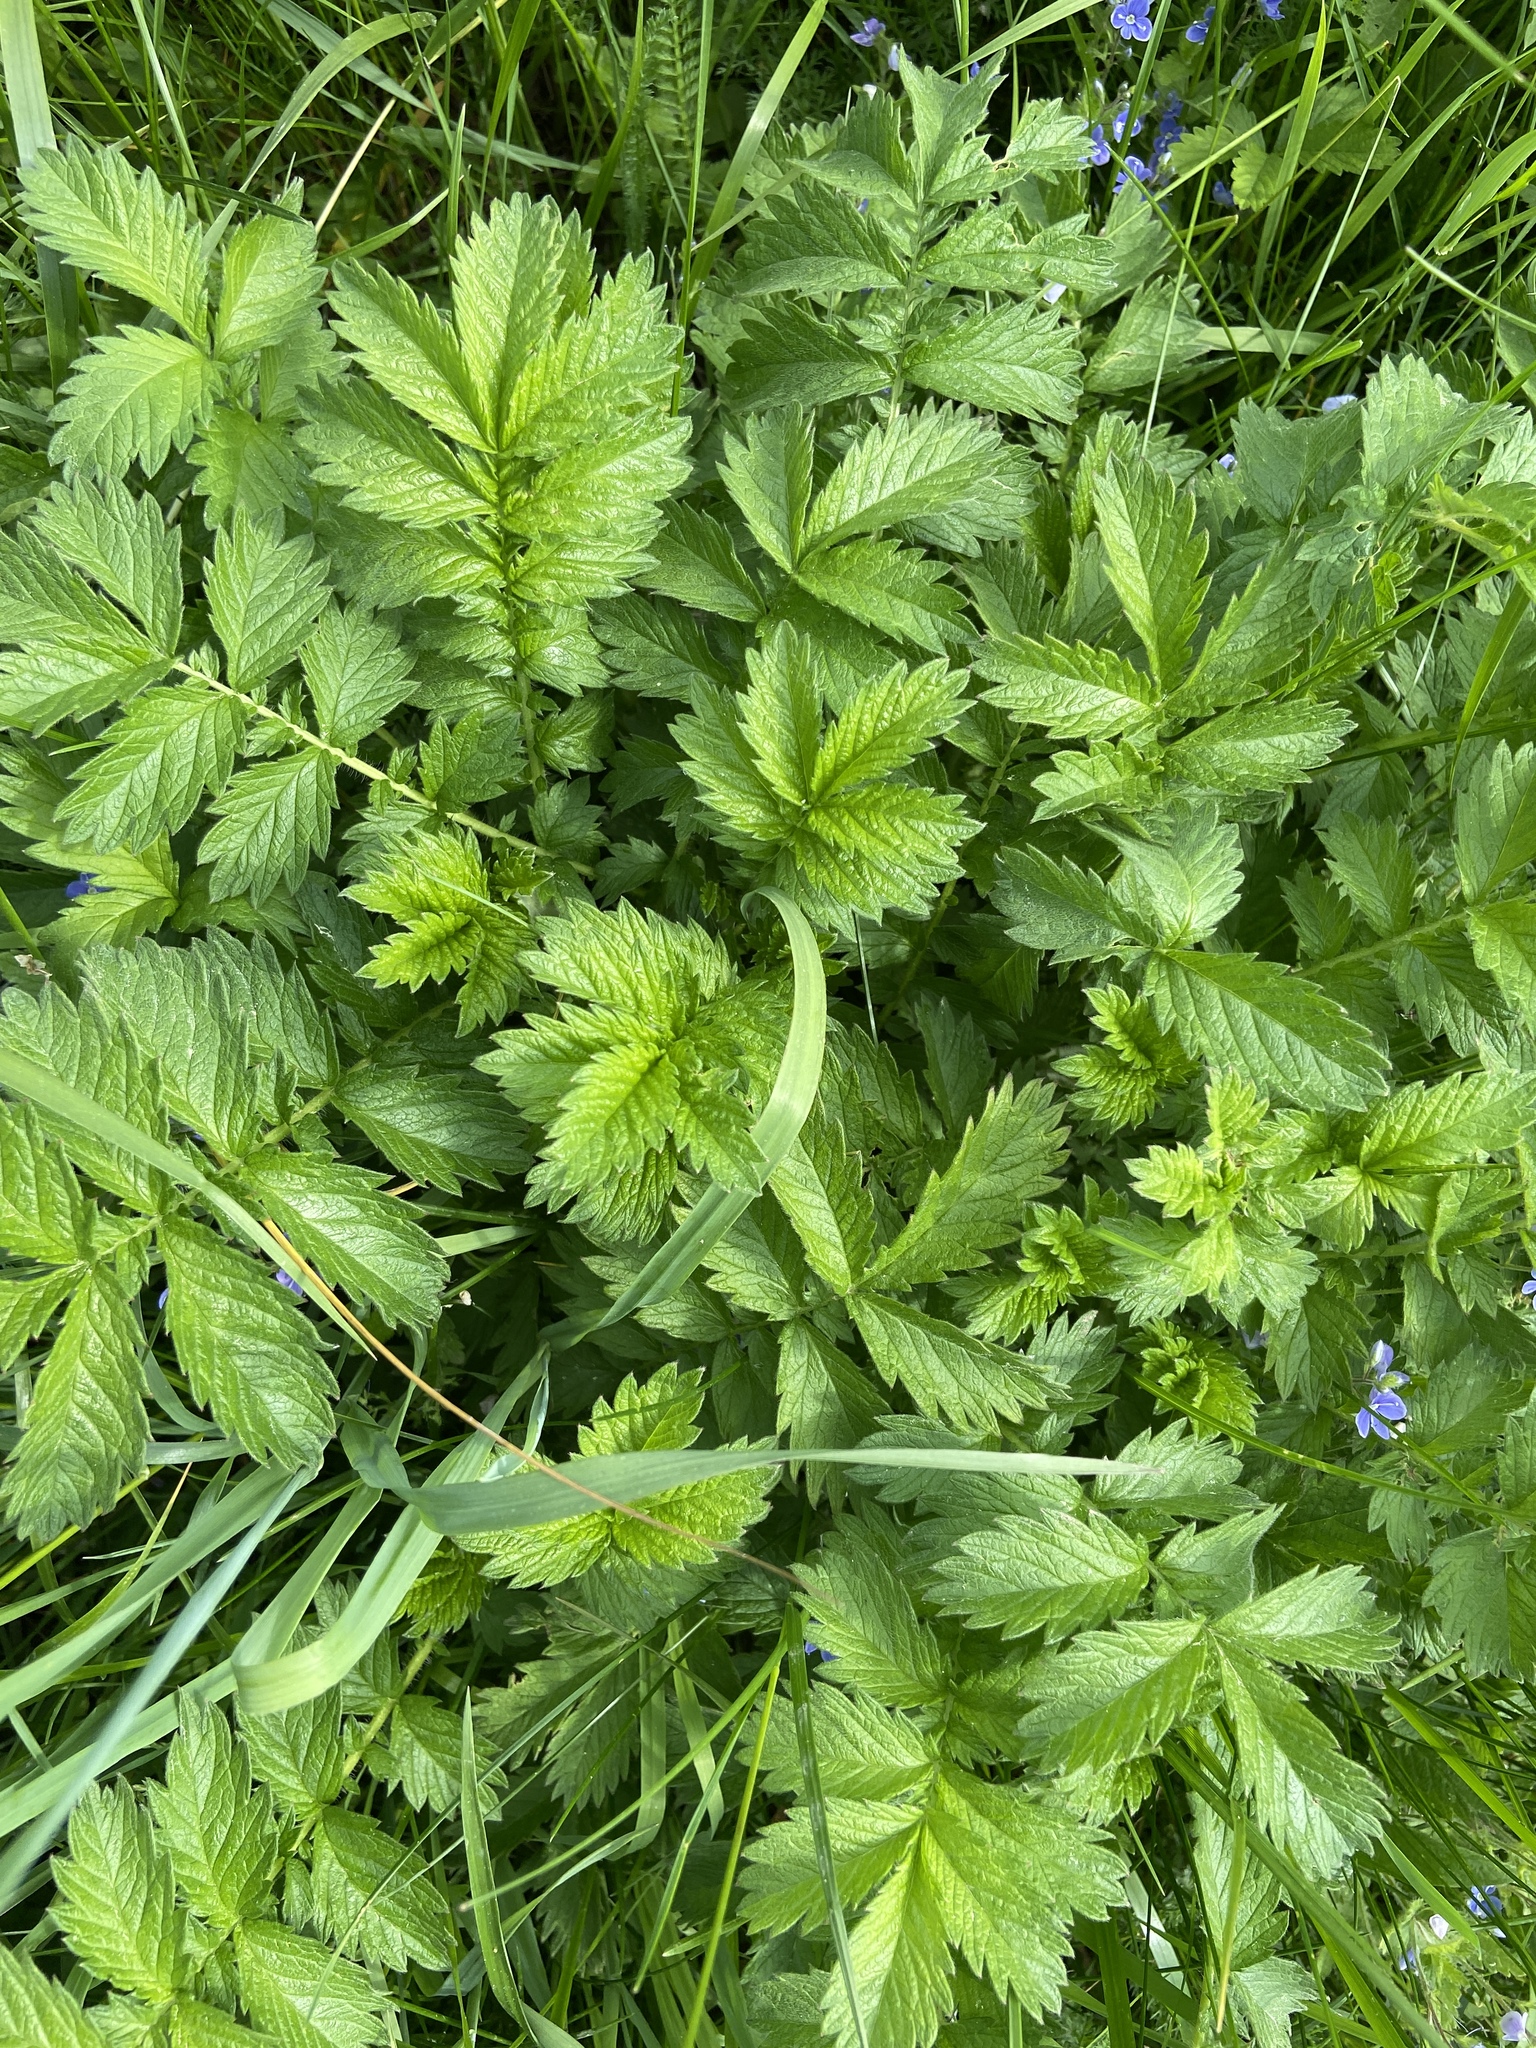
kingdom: Plantae
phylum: Tracheophyta
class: Magnoliopsida
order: Rosales
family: Rosaceae
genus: Agrimonia
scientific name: Agrimonia eupatoria
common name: Agrimony
